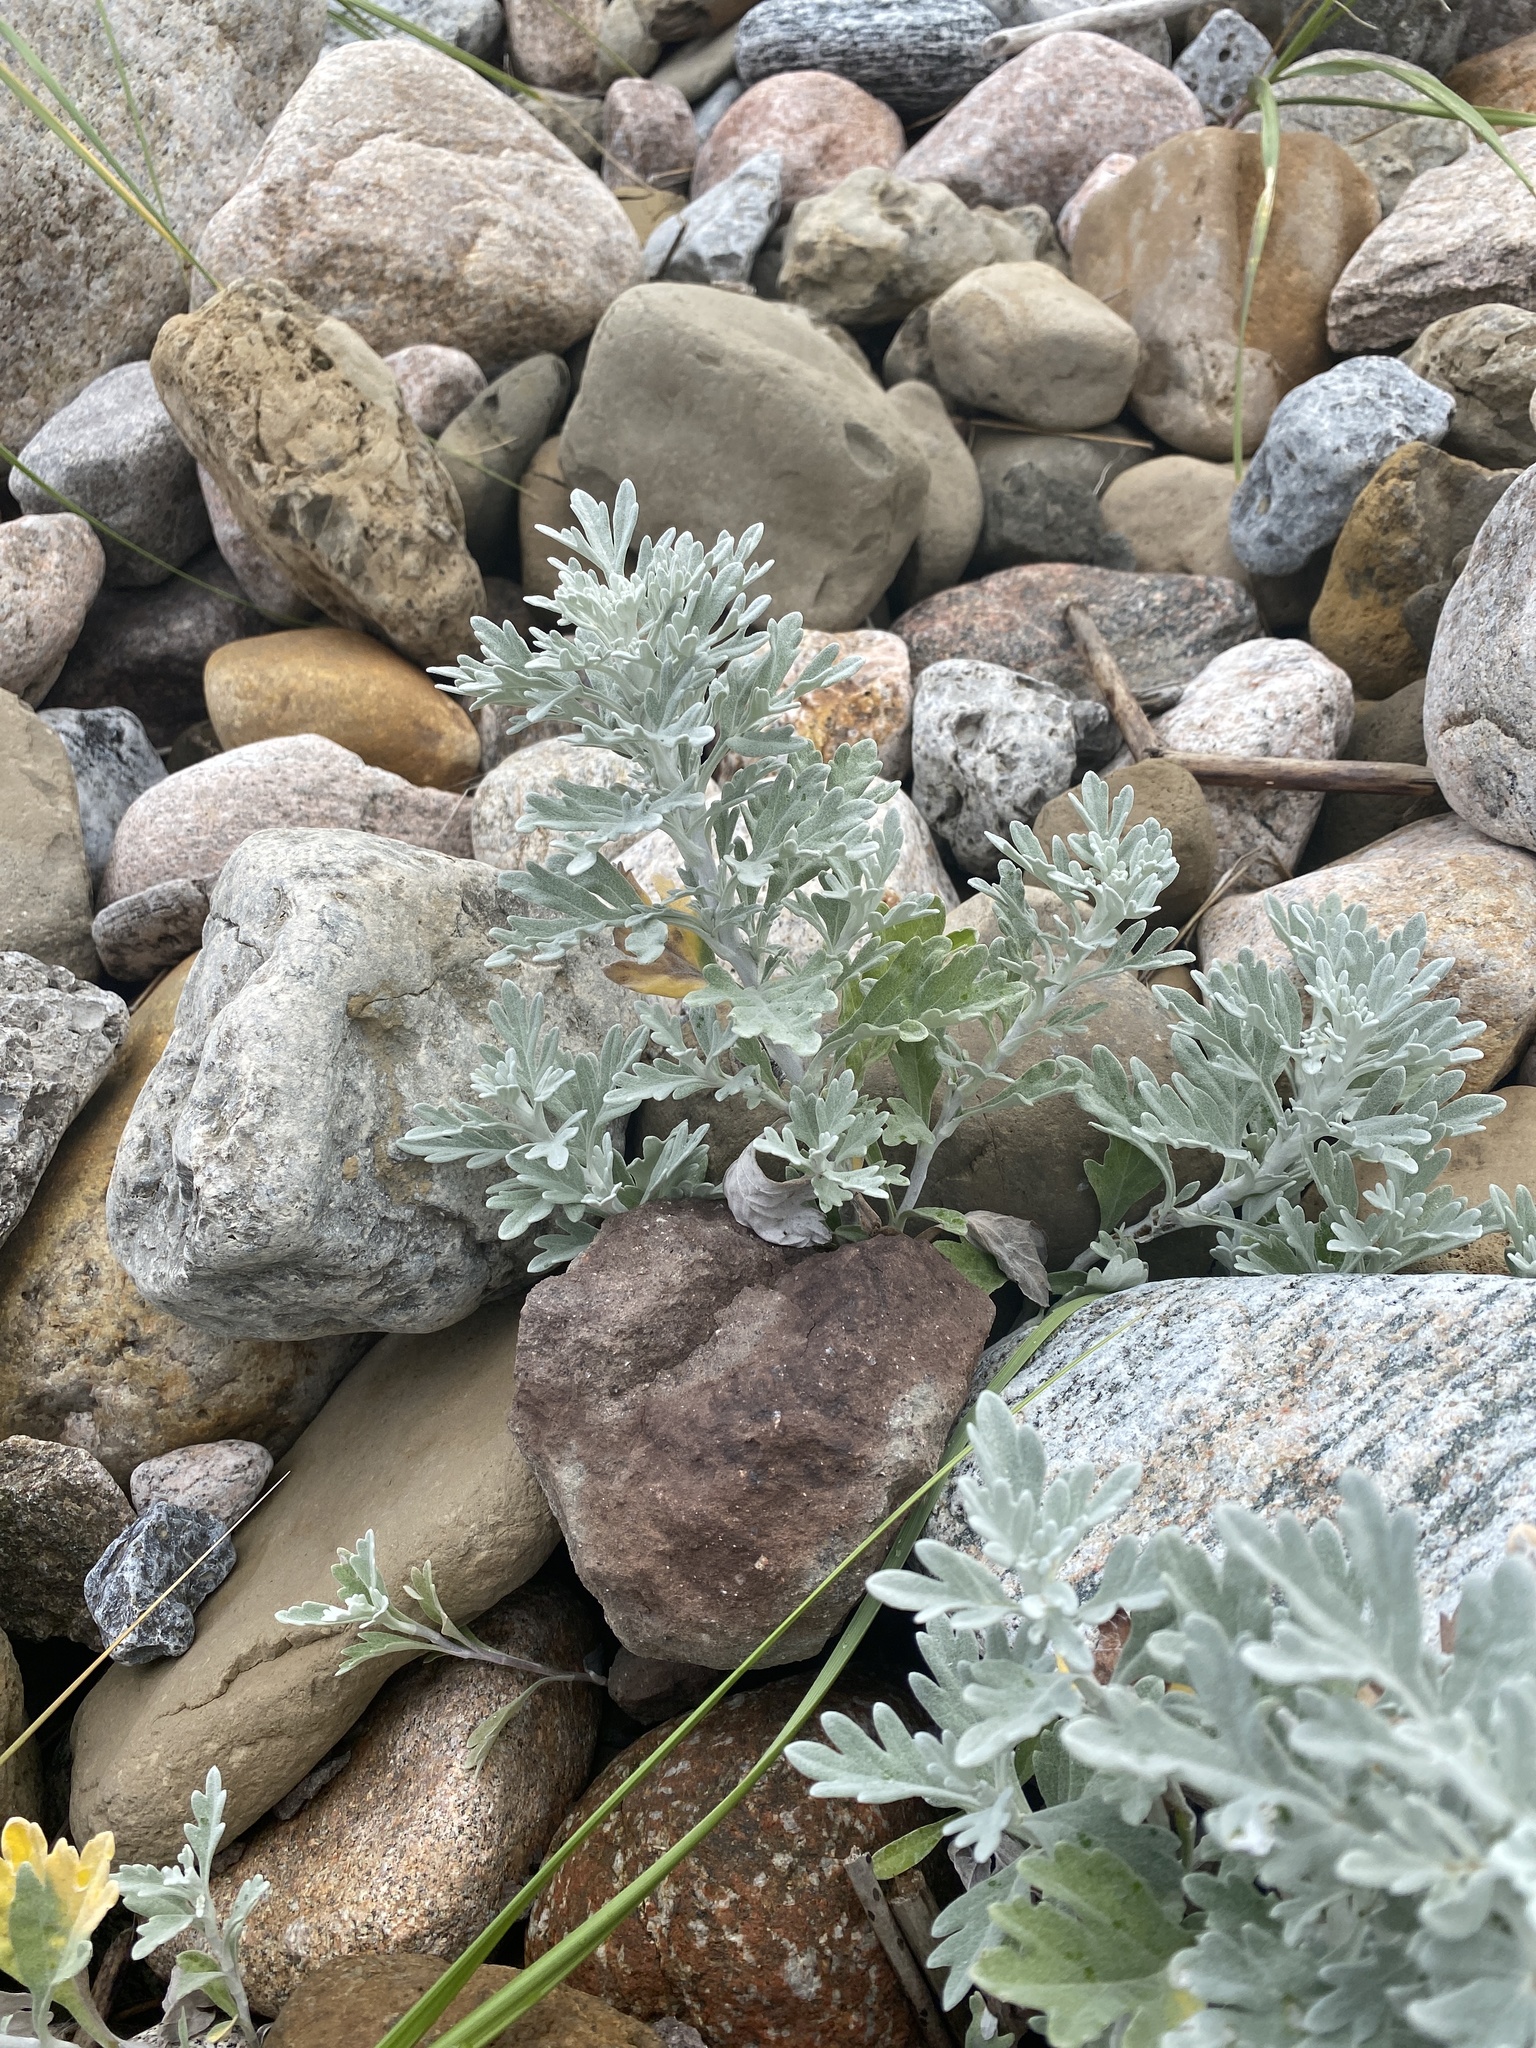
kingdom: Plantae
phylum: Tracheophyta
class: Magnoliopsida
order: Asterales
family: Asteraceae
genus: Artemisia
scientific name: Artemisia stelleriana
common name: Beach wormwood
